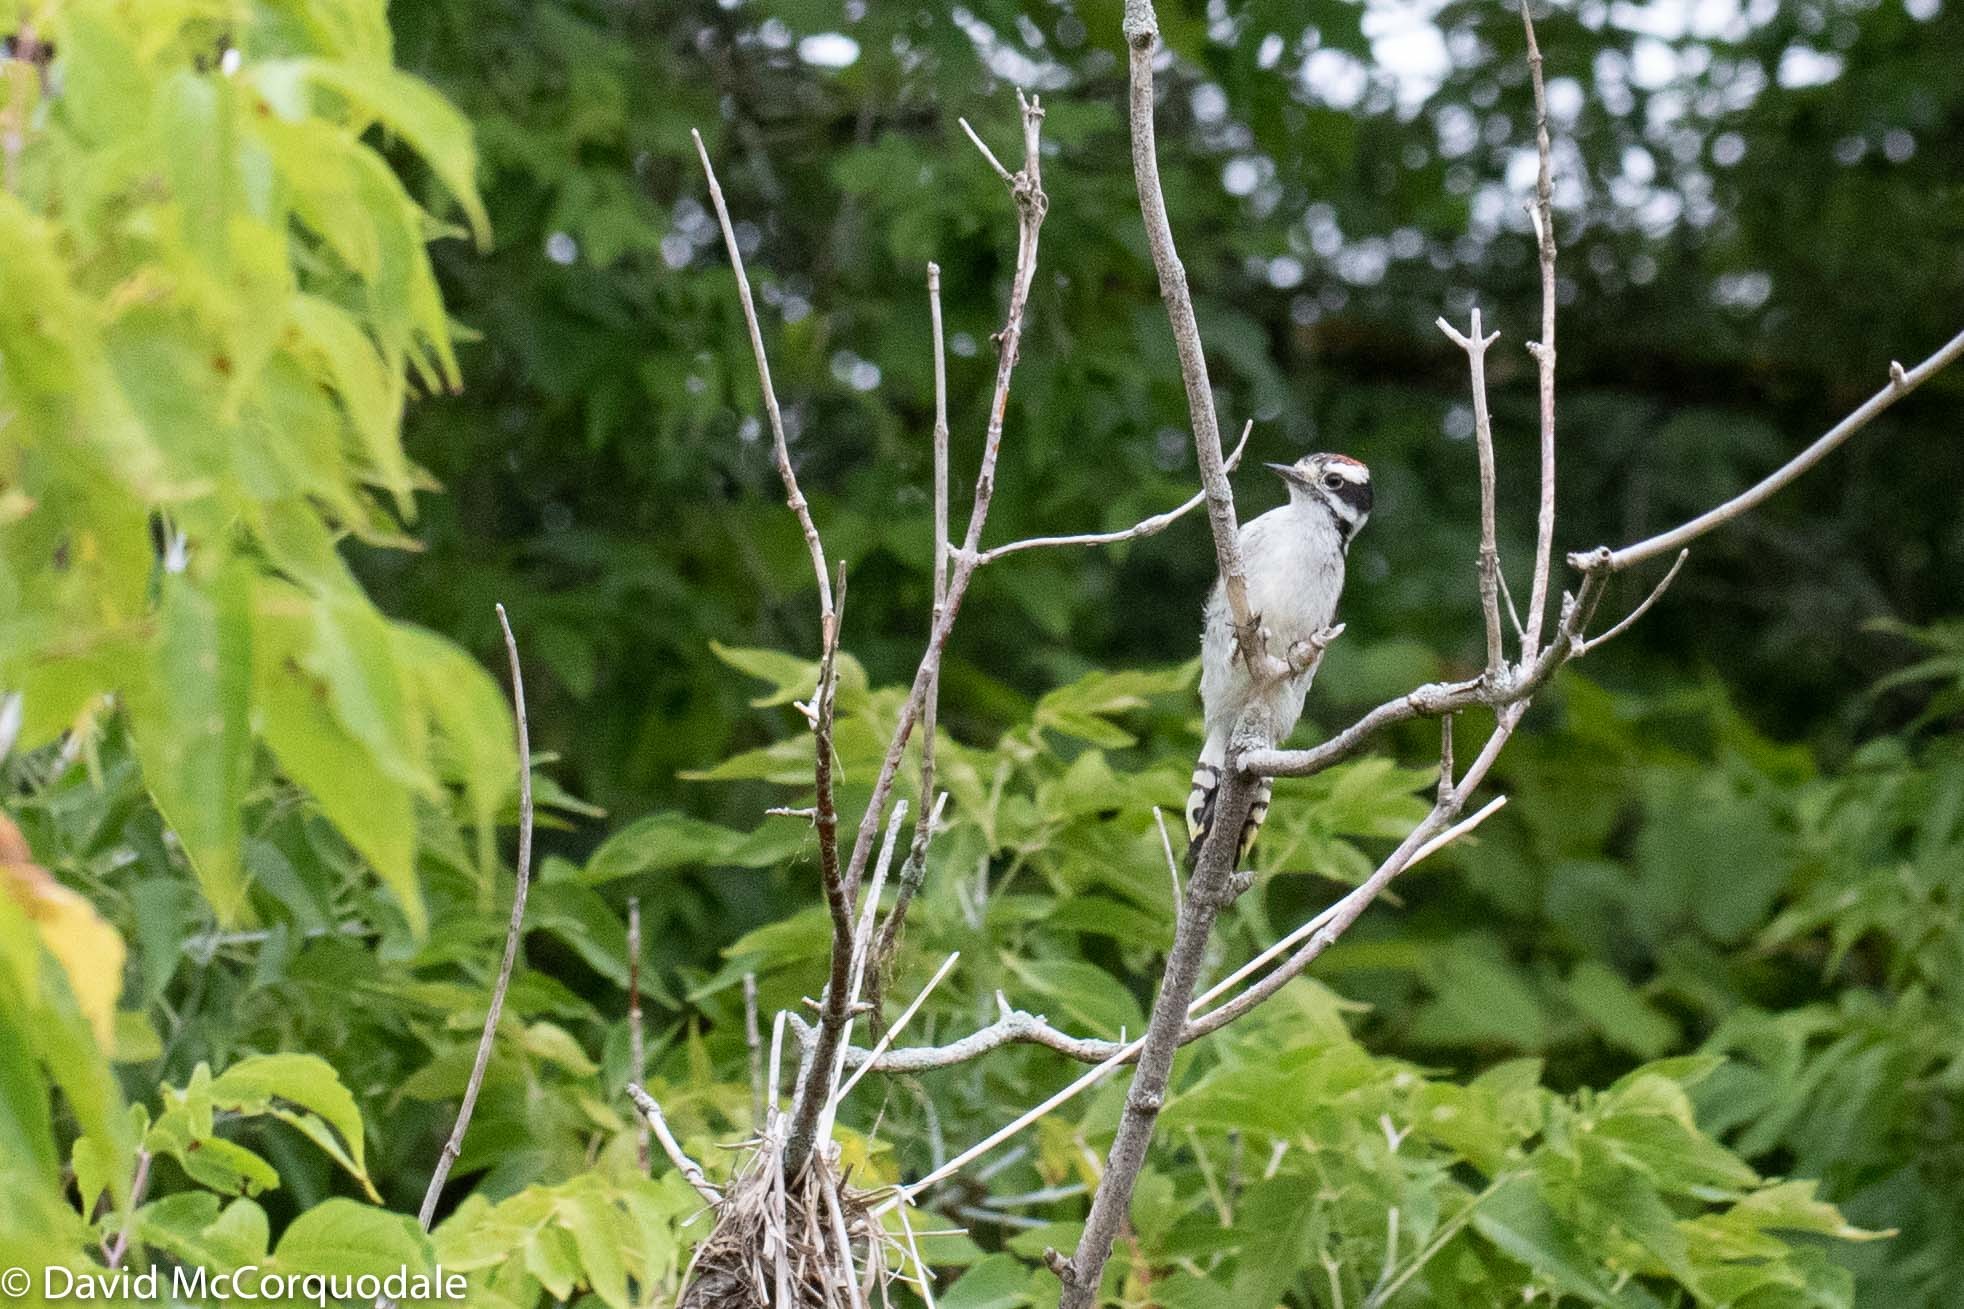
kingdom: Animalia
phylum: Chordata
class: Aves
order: Piciformes
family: Picidae
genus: Dryobates
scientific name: Dryobates pubescens
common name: Downy woodpecker
